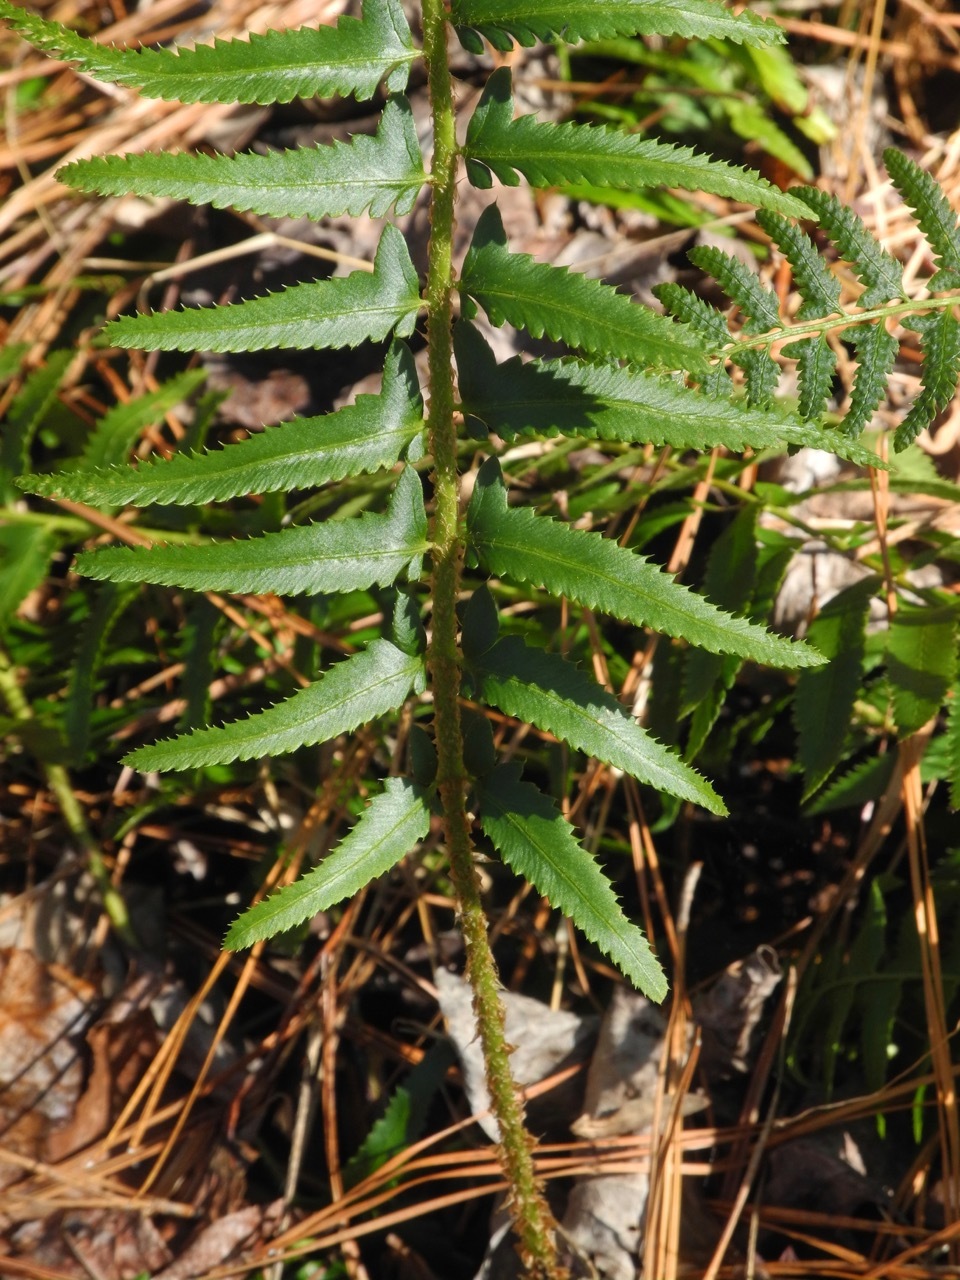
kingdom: Plantae
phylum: Tracheophyta
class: Polypodiopsida
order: Polypodiales
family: Dryopteridaceae
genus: Polystichum
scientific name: Polystichum acrostichoides
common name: Christmas fern
